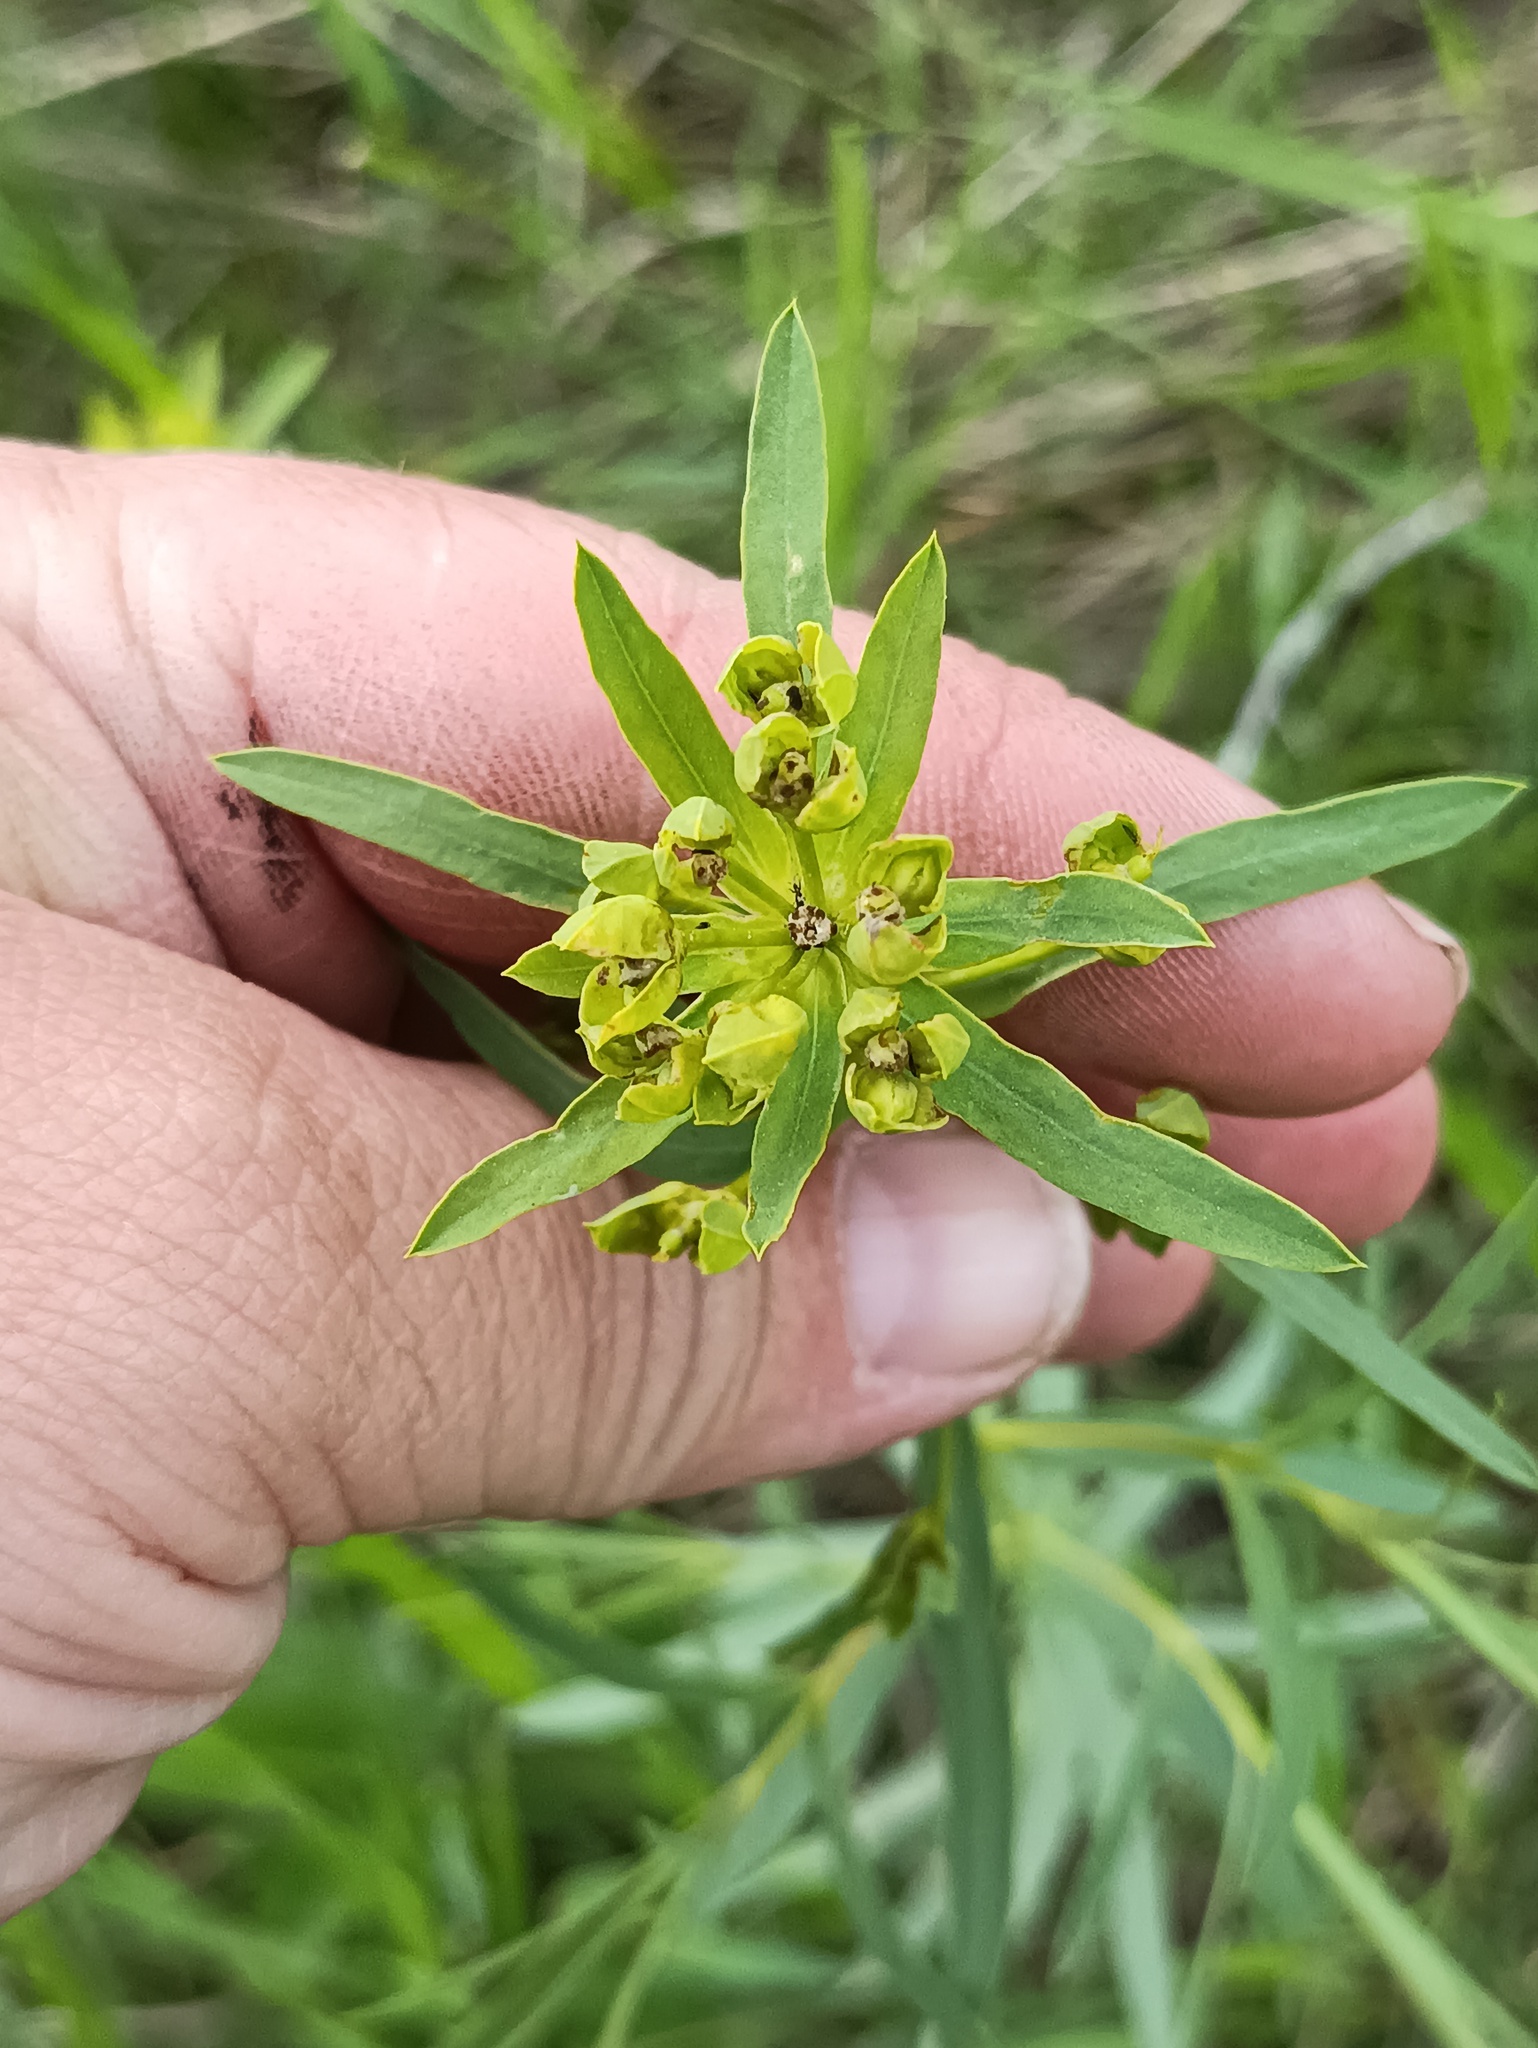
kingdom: Plantae
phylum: Tracheophyta
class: Magnoliopsida
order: Malpighiales
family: Euphorbiaceae
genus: Euphorbia
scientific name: Euphorbia virgata
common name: Leafy spurge
